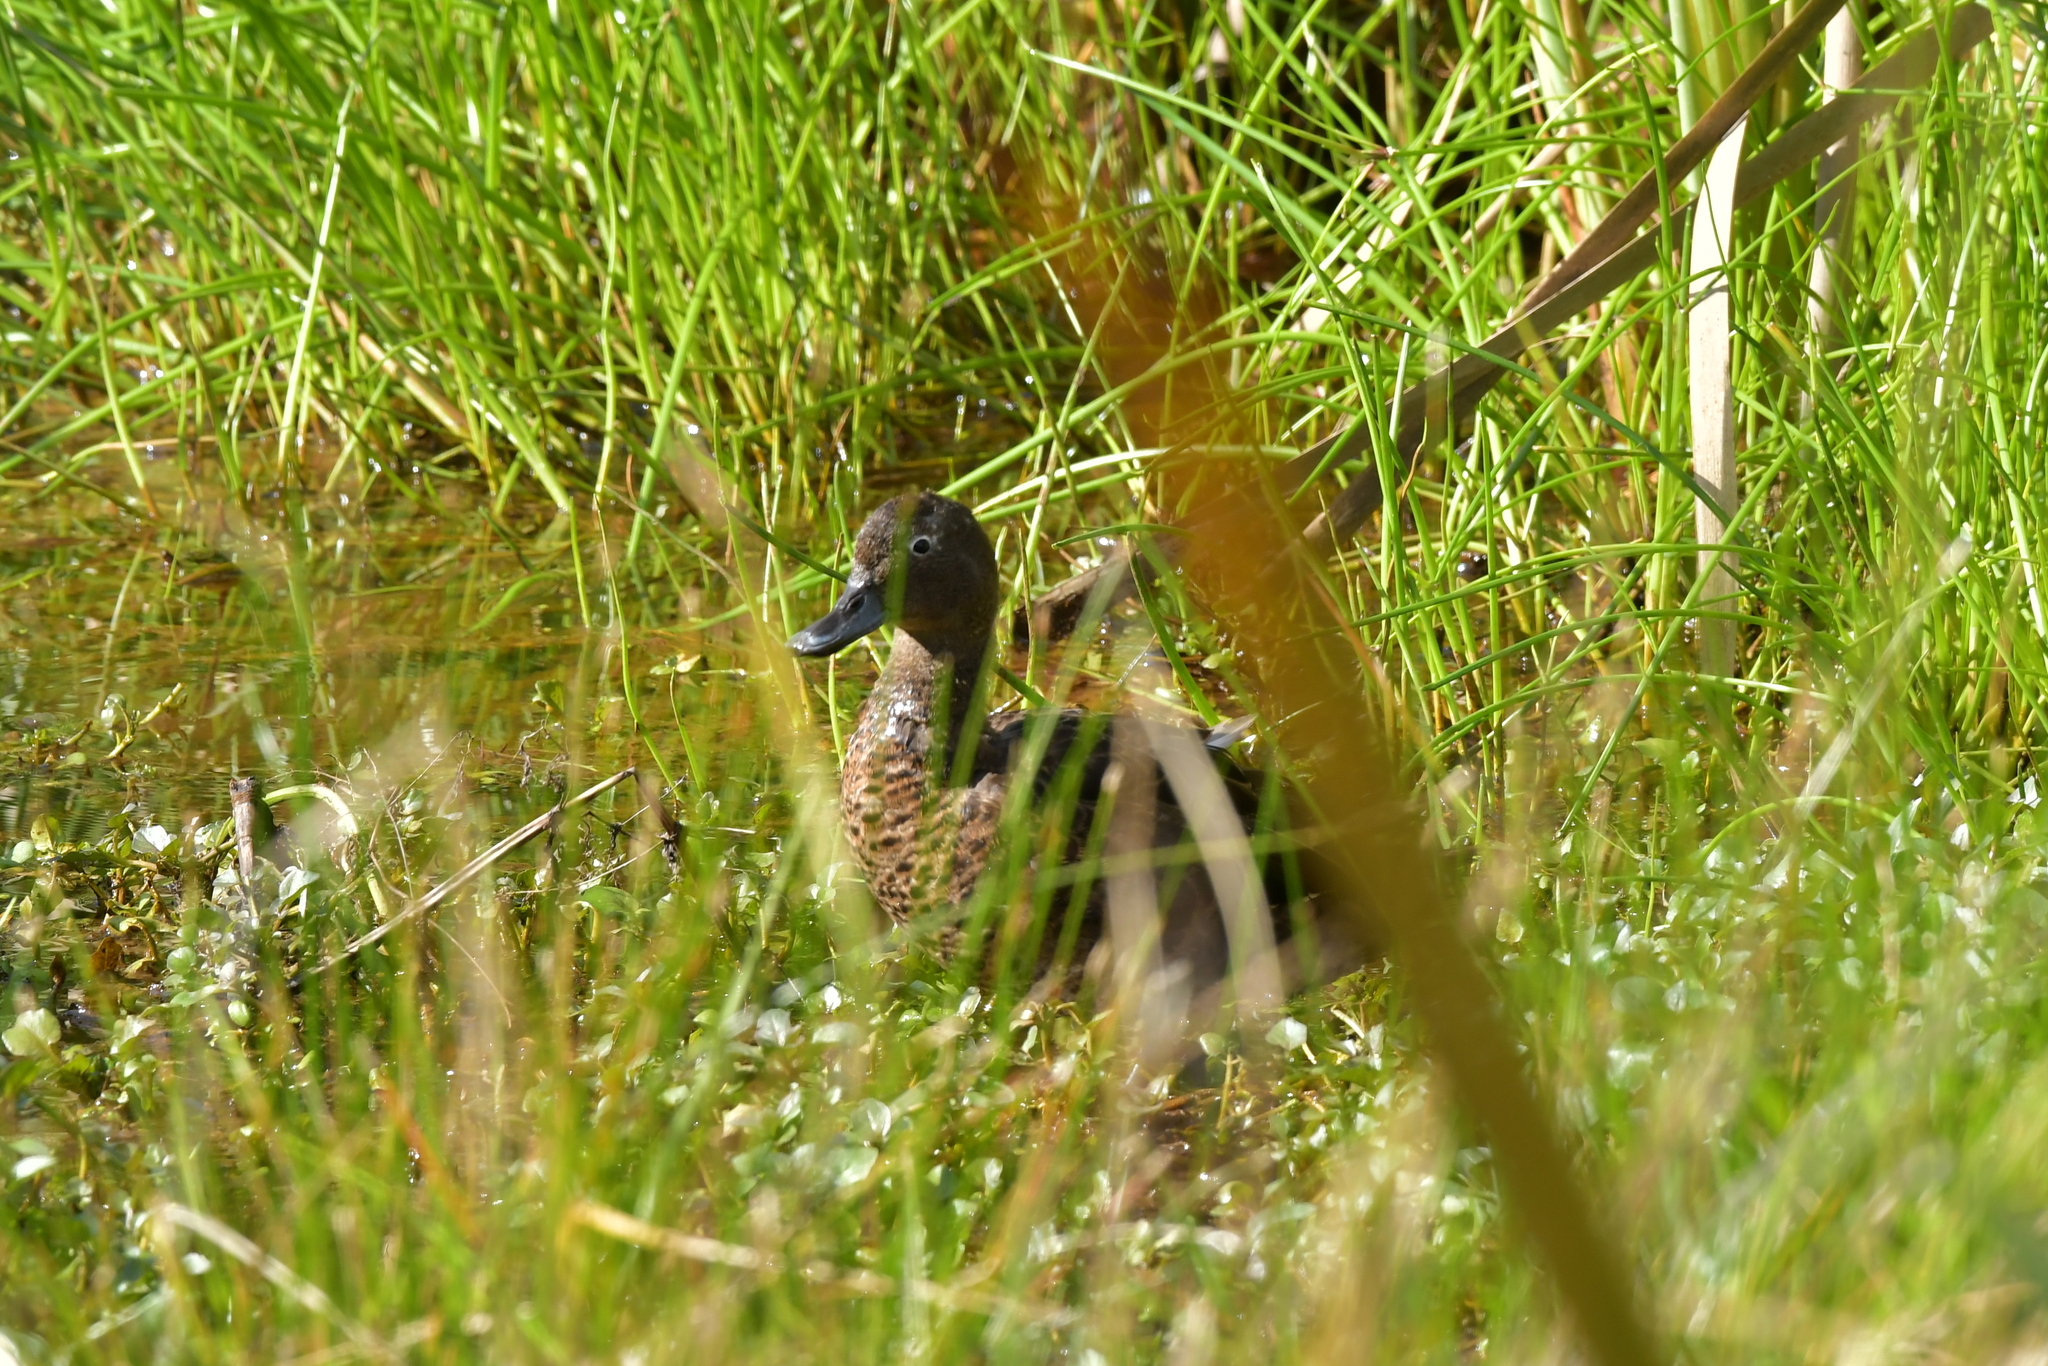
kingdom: Animalia
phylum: Chordata
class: Aves
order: Anseriformes
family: Anatidae
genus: Anas
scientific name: Anas chlorotis
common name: Brown teal
